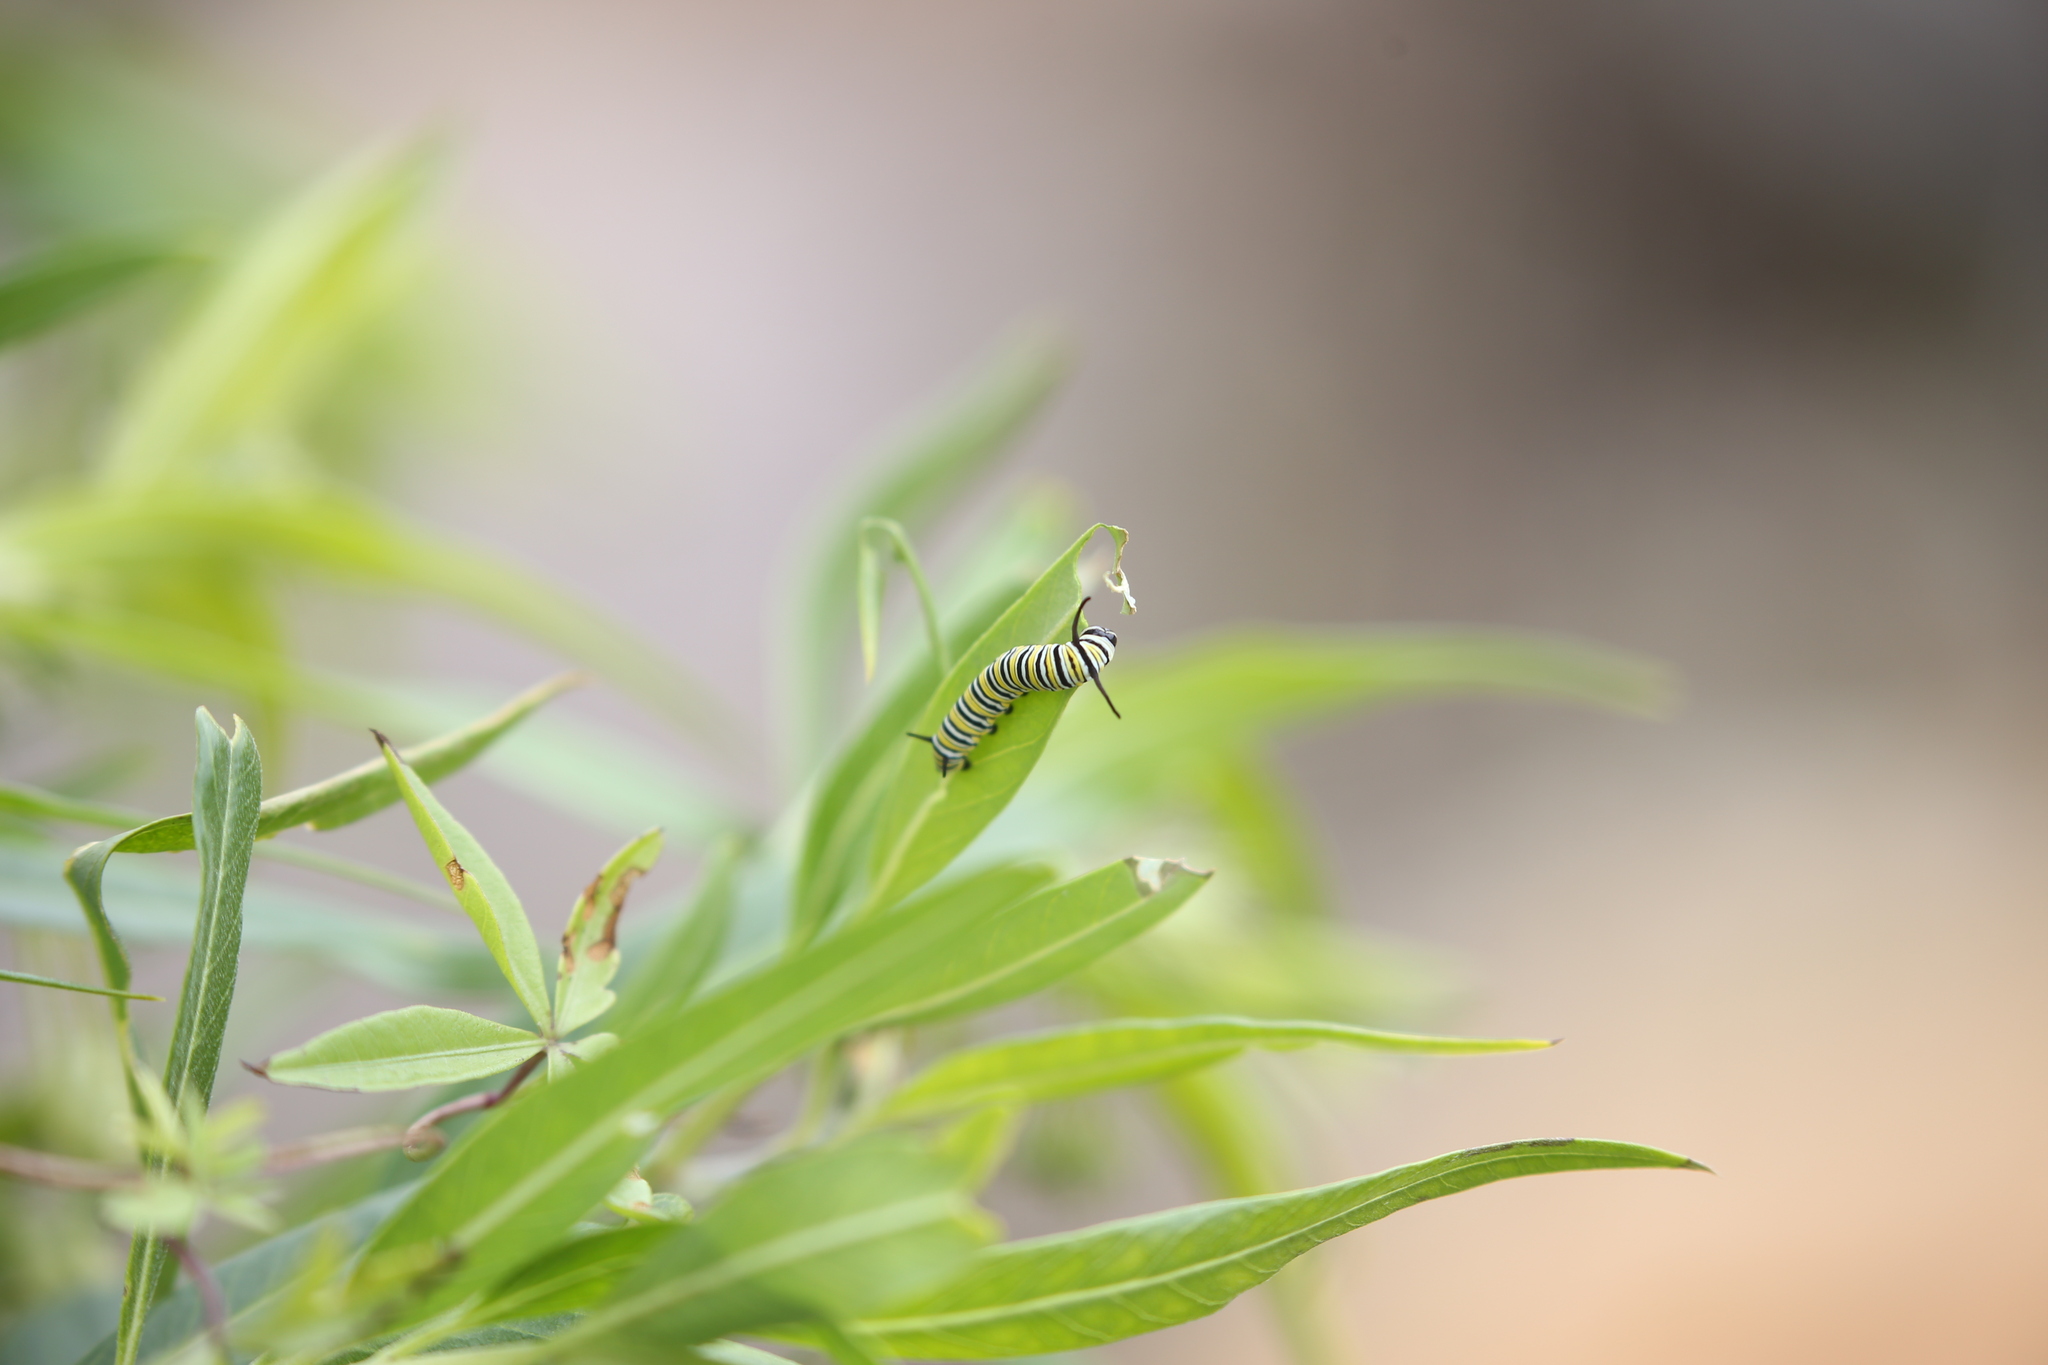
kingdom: Animalia
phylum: Arthropoda
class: Insecta
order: Lepidoptera
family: Nymphalidae
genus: Danaus
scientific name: Danaus plexippus
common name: Monarch
